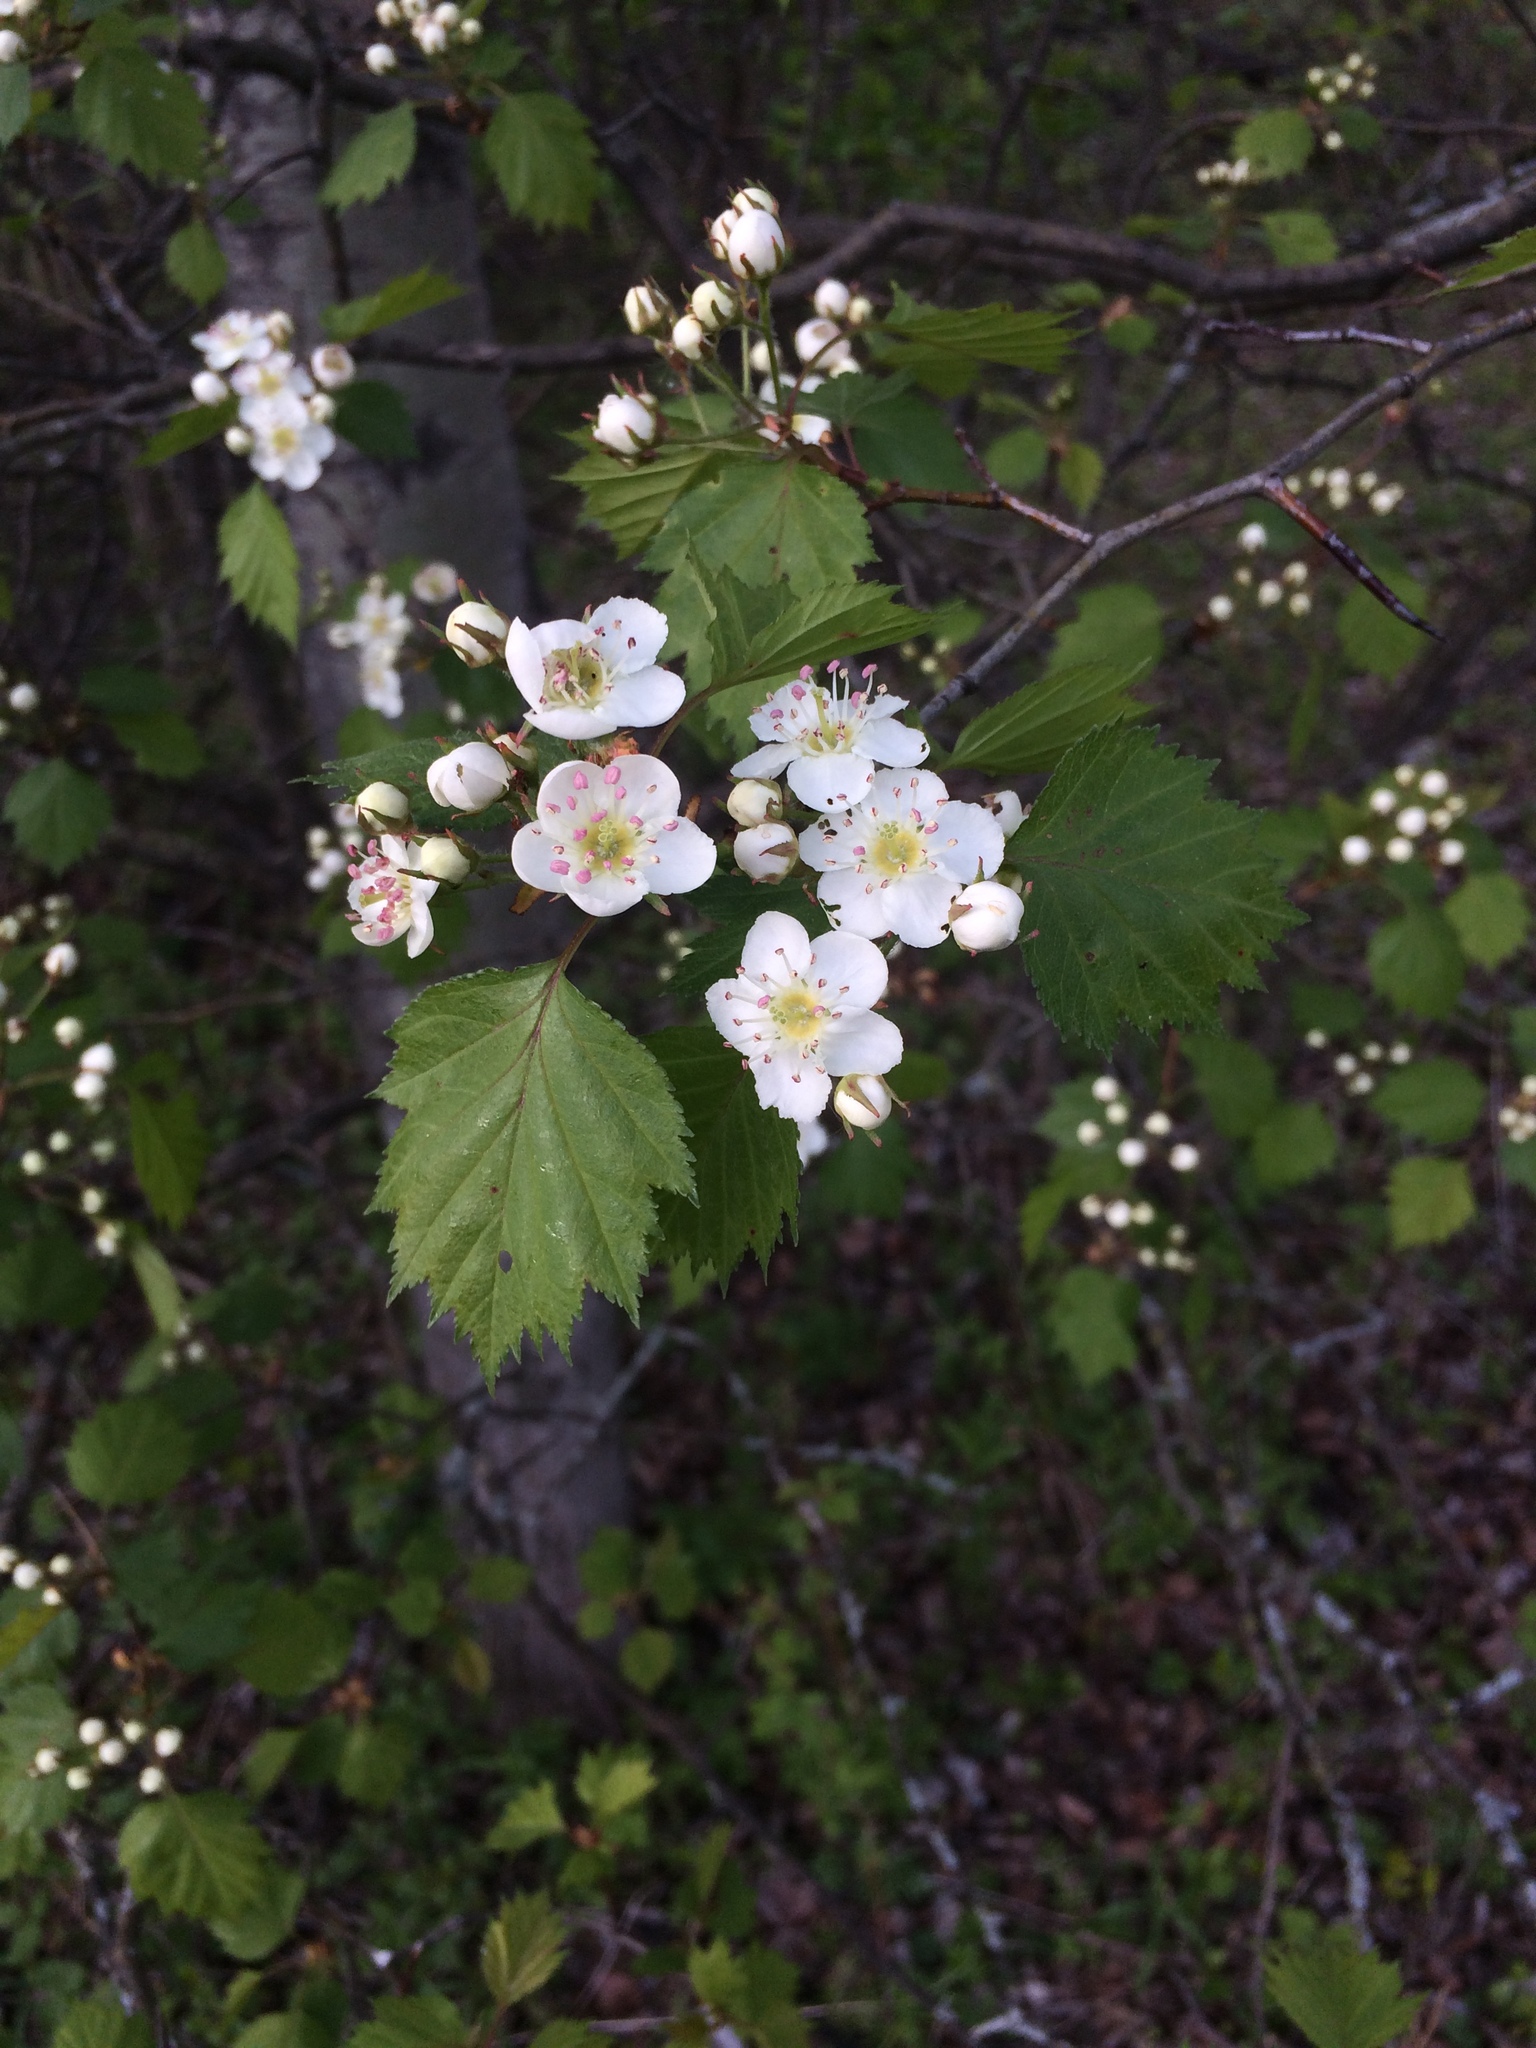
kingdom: Plantae
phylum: Tracheophyta
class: Magnoliopsida
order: Rosales
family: Rosaceae
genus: Crataegus
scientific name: Crataegus flabellata
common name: Bosc's hawthorn
